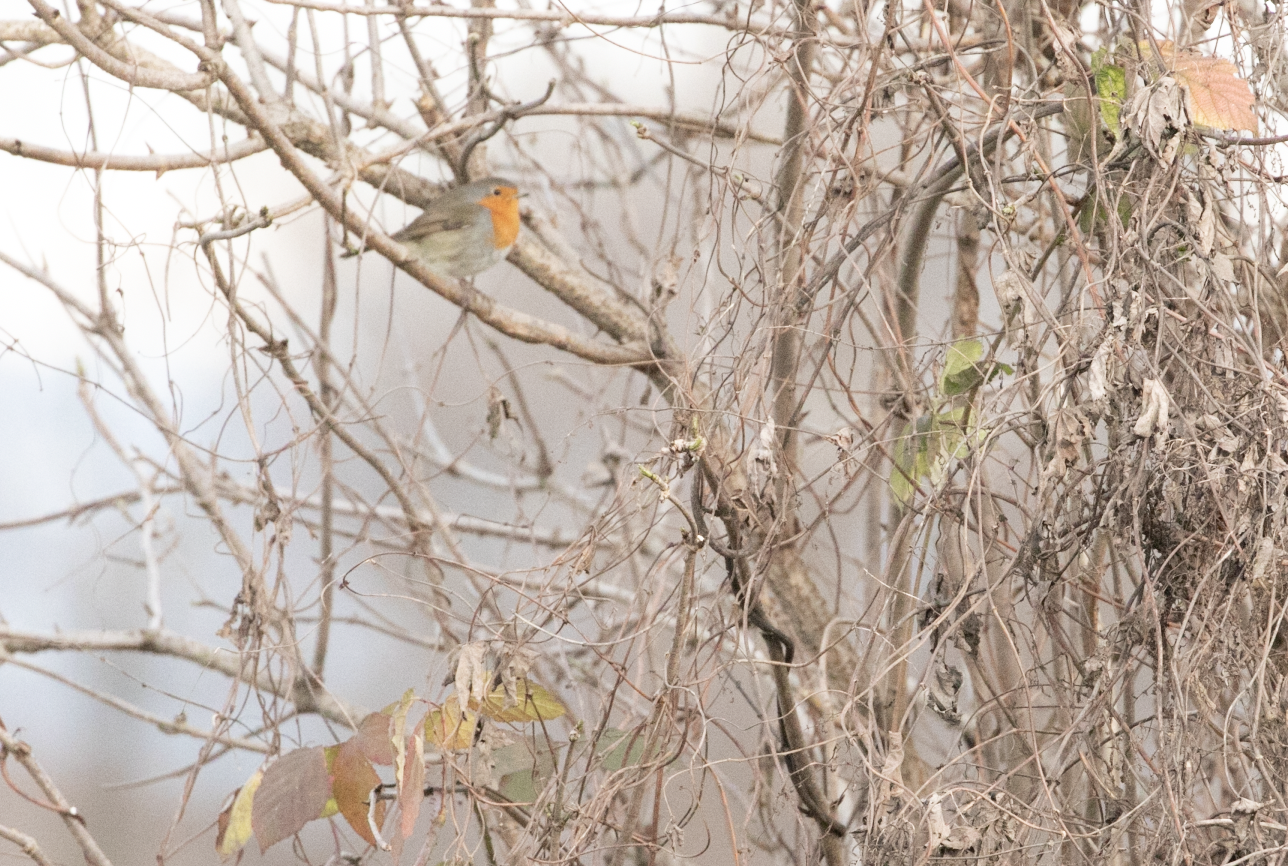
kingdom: Animalia
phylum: Chordata
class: Aves
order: Passeriformes
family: Muscicapidae
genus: Erithacus
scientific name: Erithacus rubecula
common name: European robin
